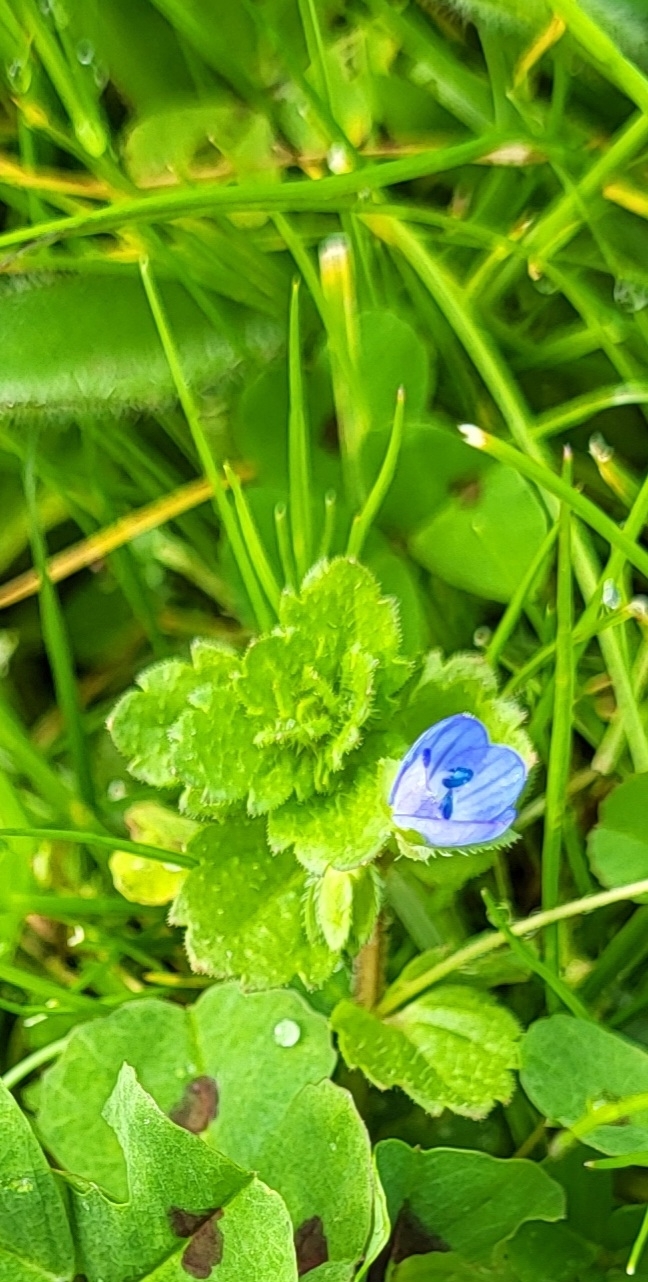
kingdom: Plantae
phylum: Tracheophyta
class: Magnoliopsida
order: Lamiales
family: Plantaginaceae
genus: Veronica
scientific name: Veronica persica
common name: Common field-speedwell
